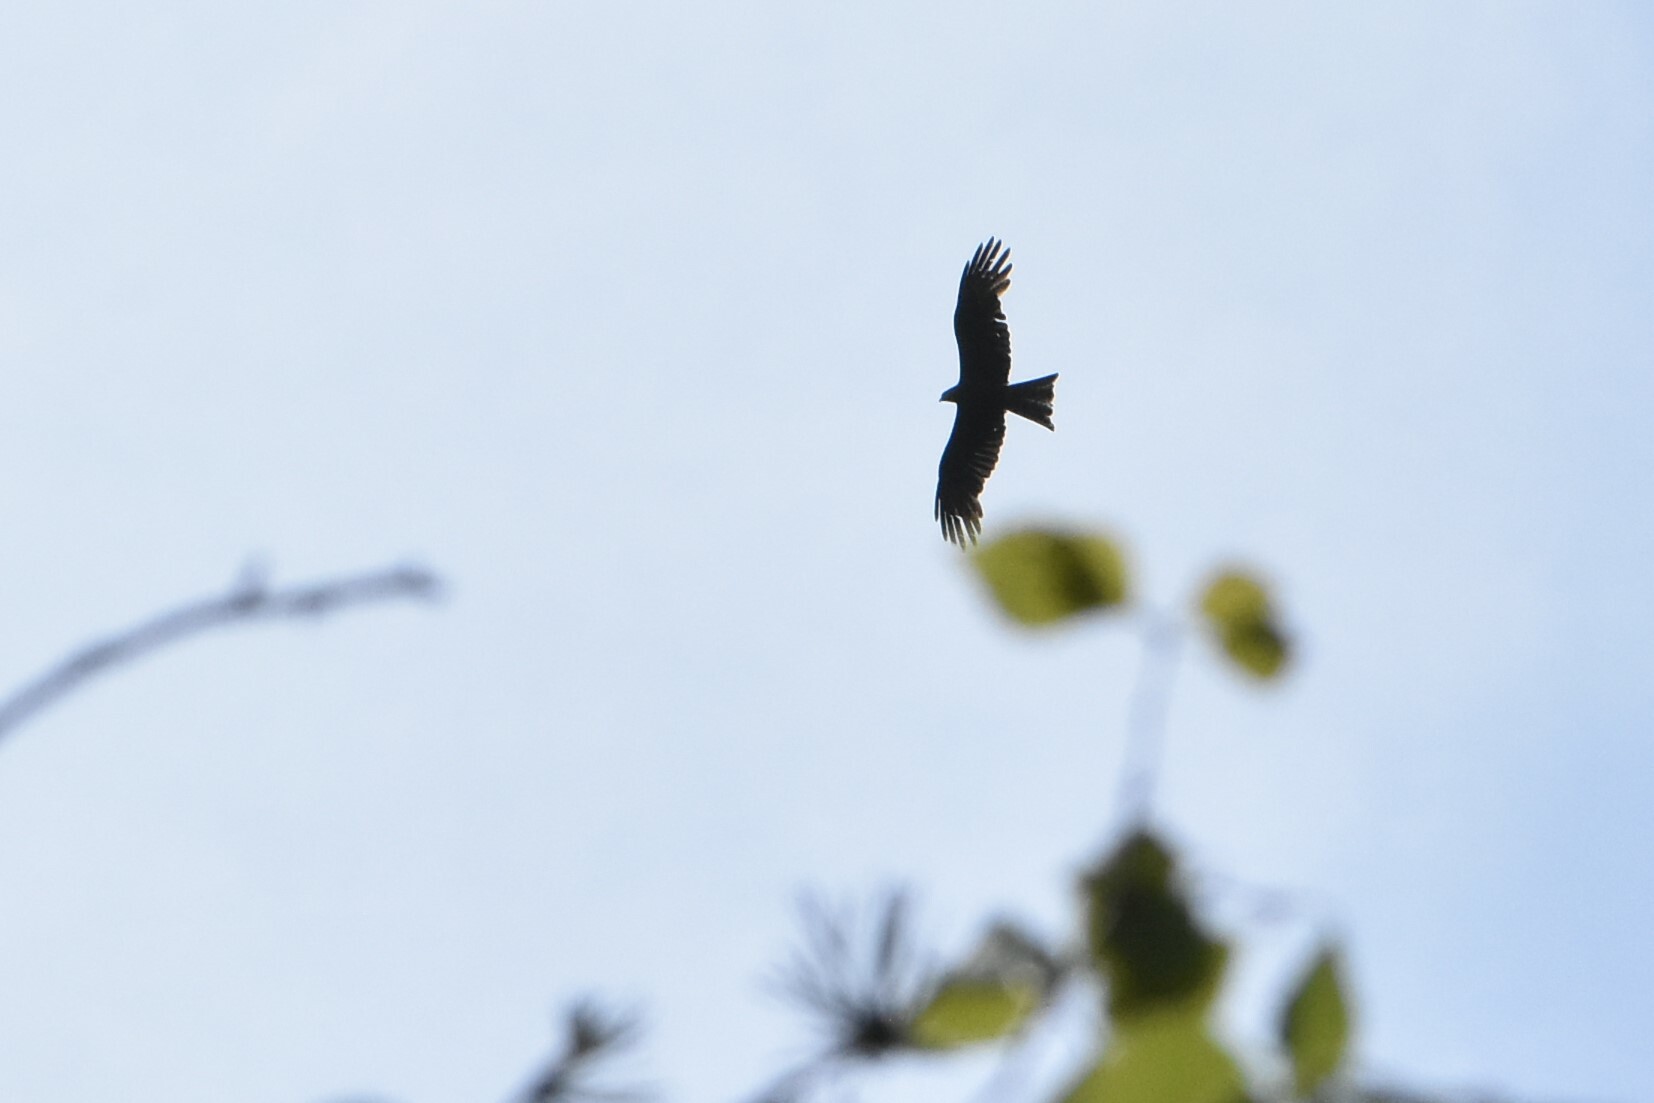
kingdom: Animalia
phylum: Chordata
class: Aves
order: Accipitriformes
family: Accipitridae
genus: Milvus
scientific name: Milvus migrans
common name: Black kite
